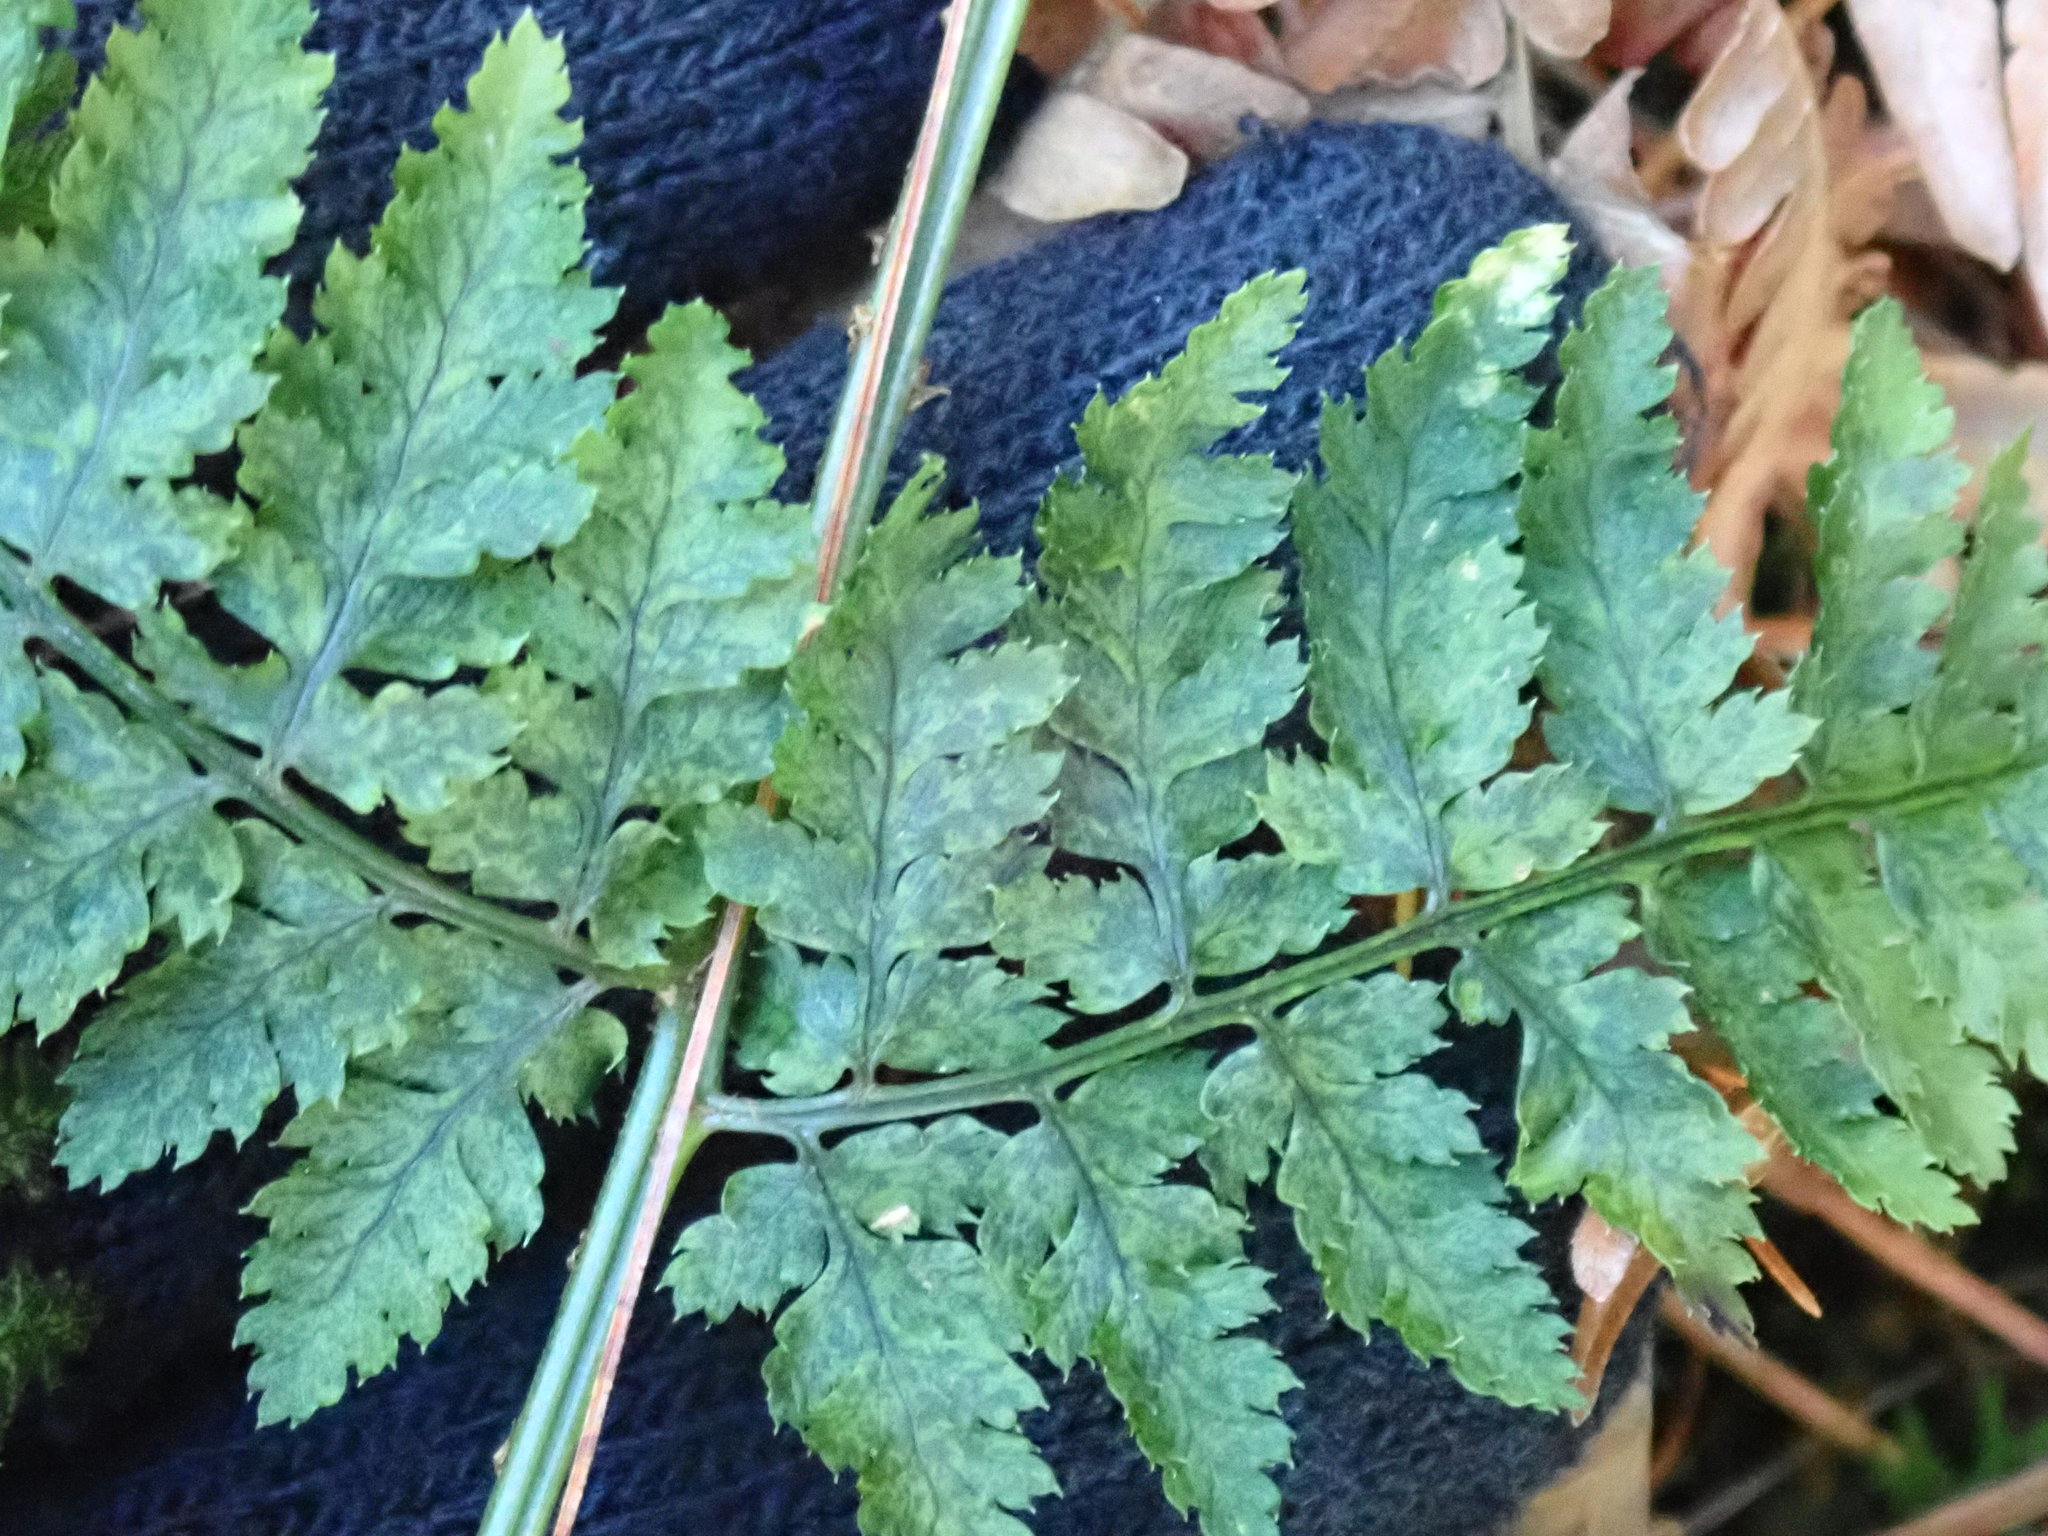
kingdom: Plantae
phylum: Tracheophyta
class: Polypodiopsida
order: Polypodiales
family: Dryopteridaceae
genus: Dryopteris
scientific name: Dryopteris intermedia
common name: Evergreen wood fern
